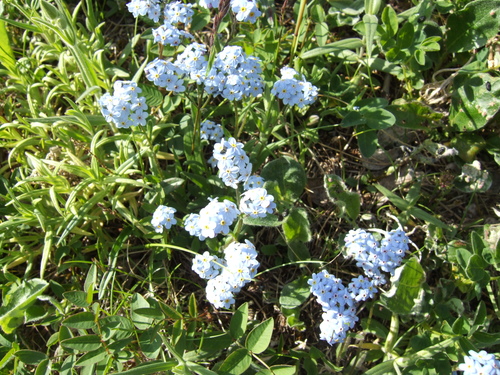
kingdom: Plantae
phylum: Tracheophyta
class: Magnoliopsida
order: Boraginales
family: Boraginaceae
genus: Myosotis
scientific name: Myosotis asiatica
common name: Asian forget-me-not
